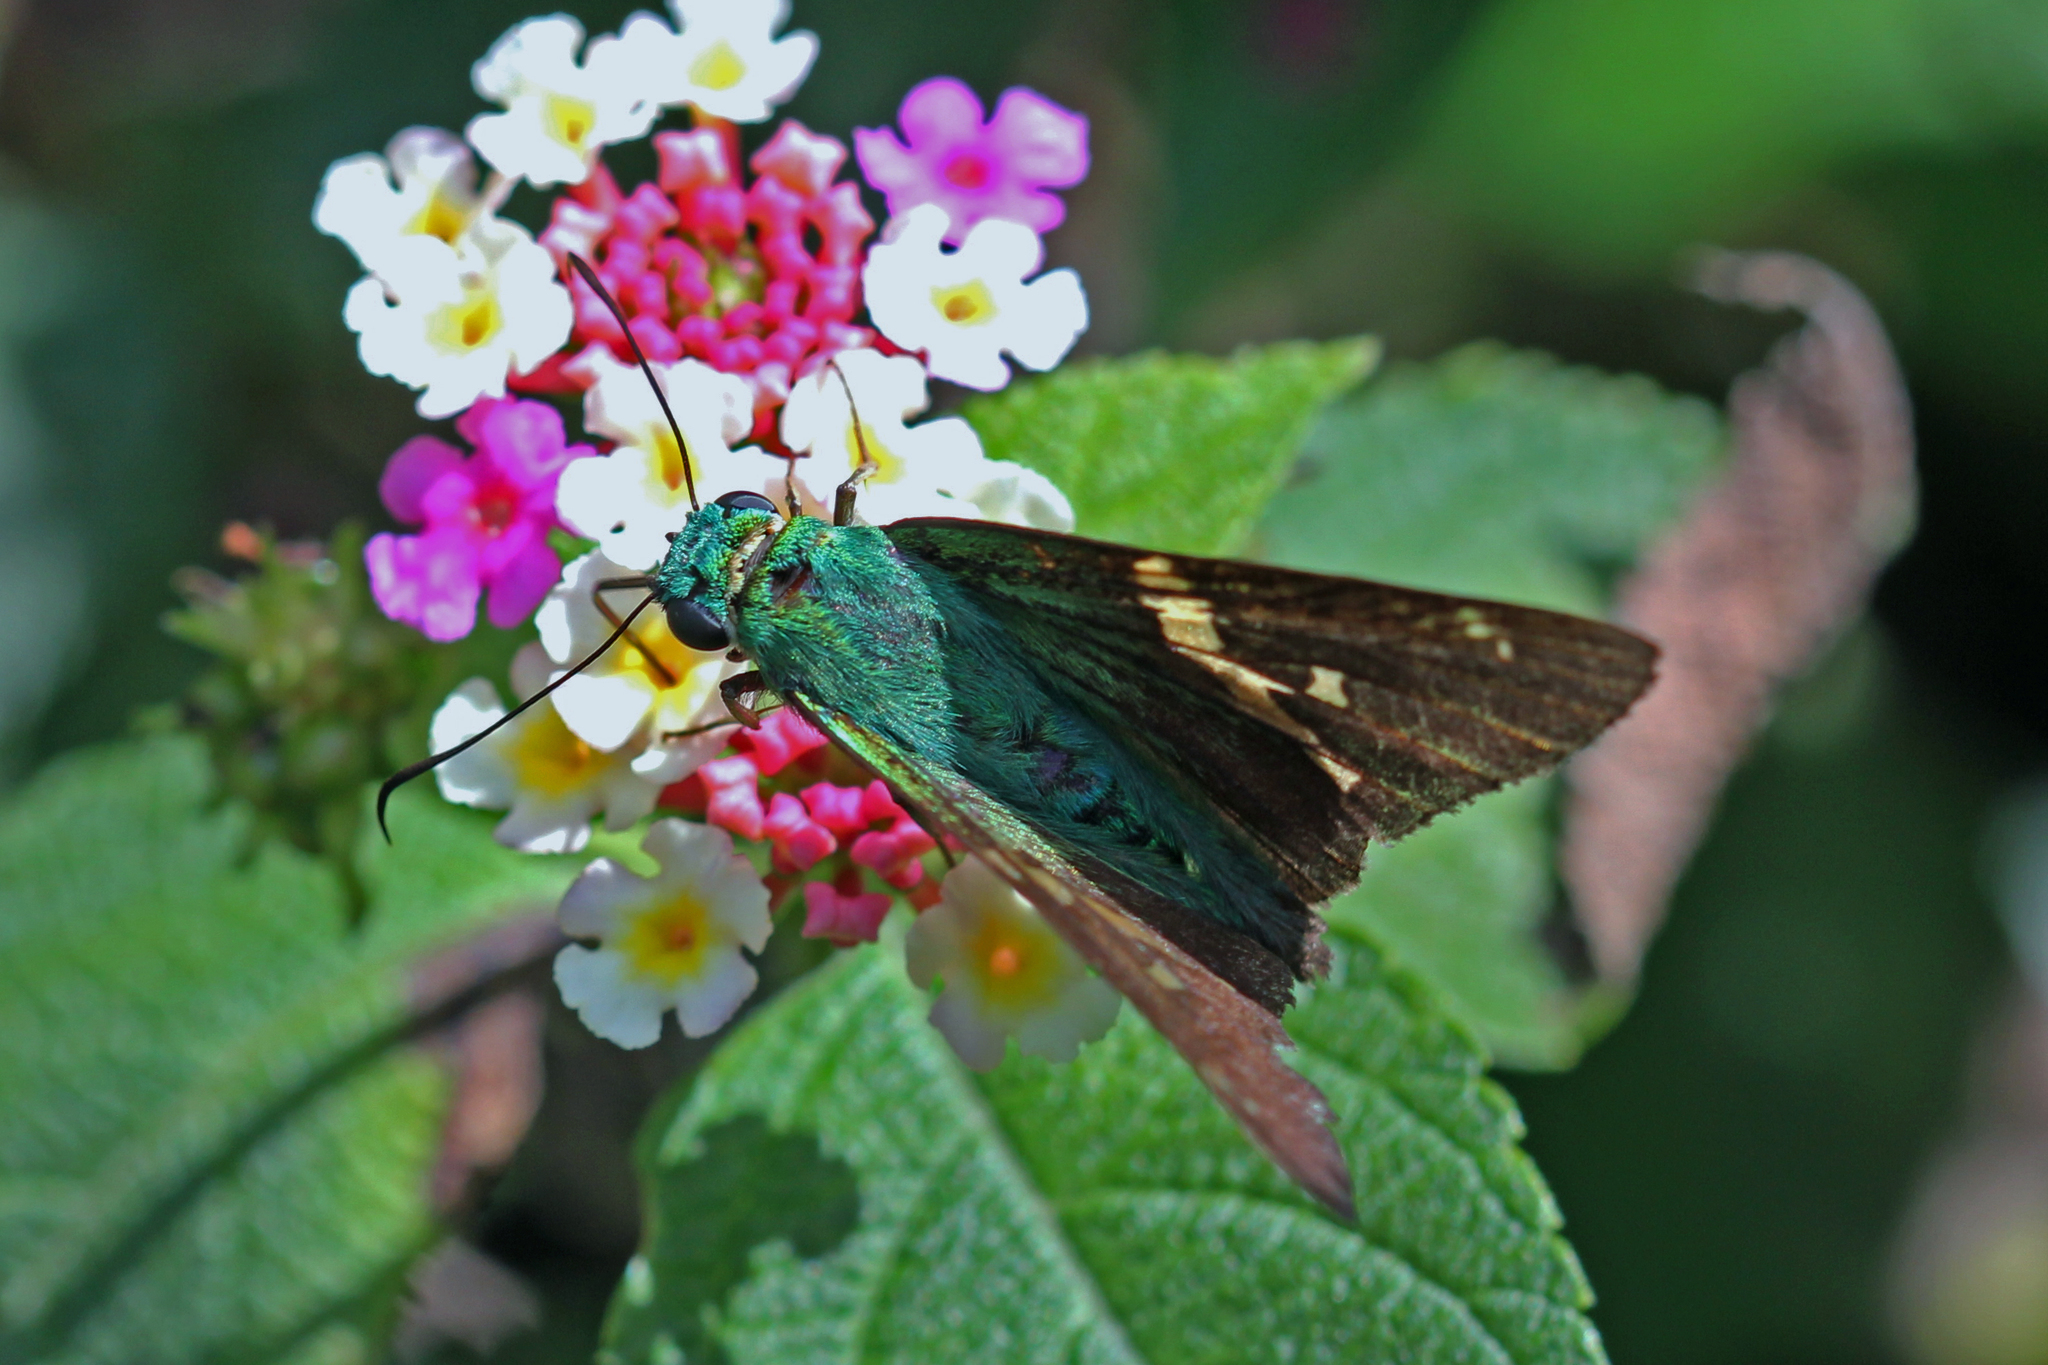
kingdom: Animalia
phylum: Arthropoda
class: Insecta
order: Lepidoptera
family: Hesperiidae
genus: Astraptes
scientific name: Astraptes talus
